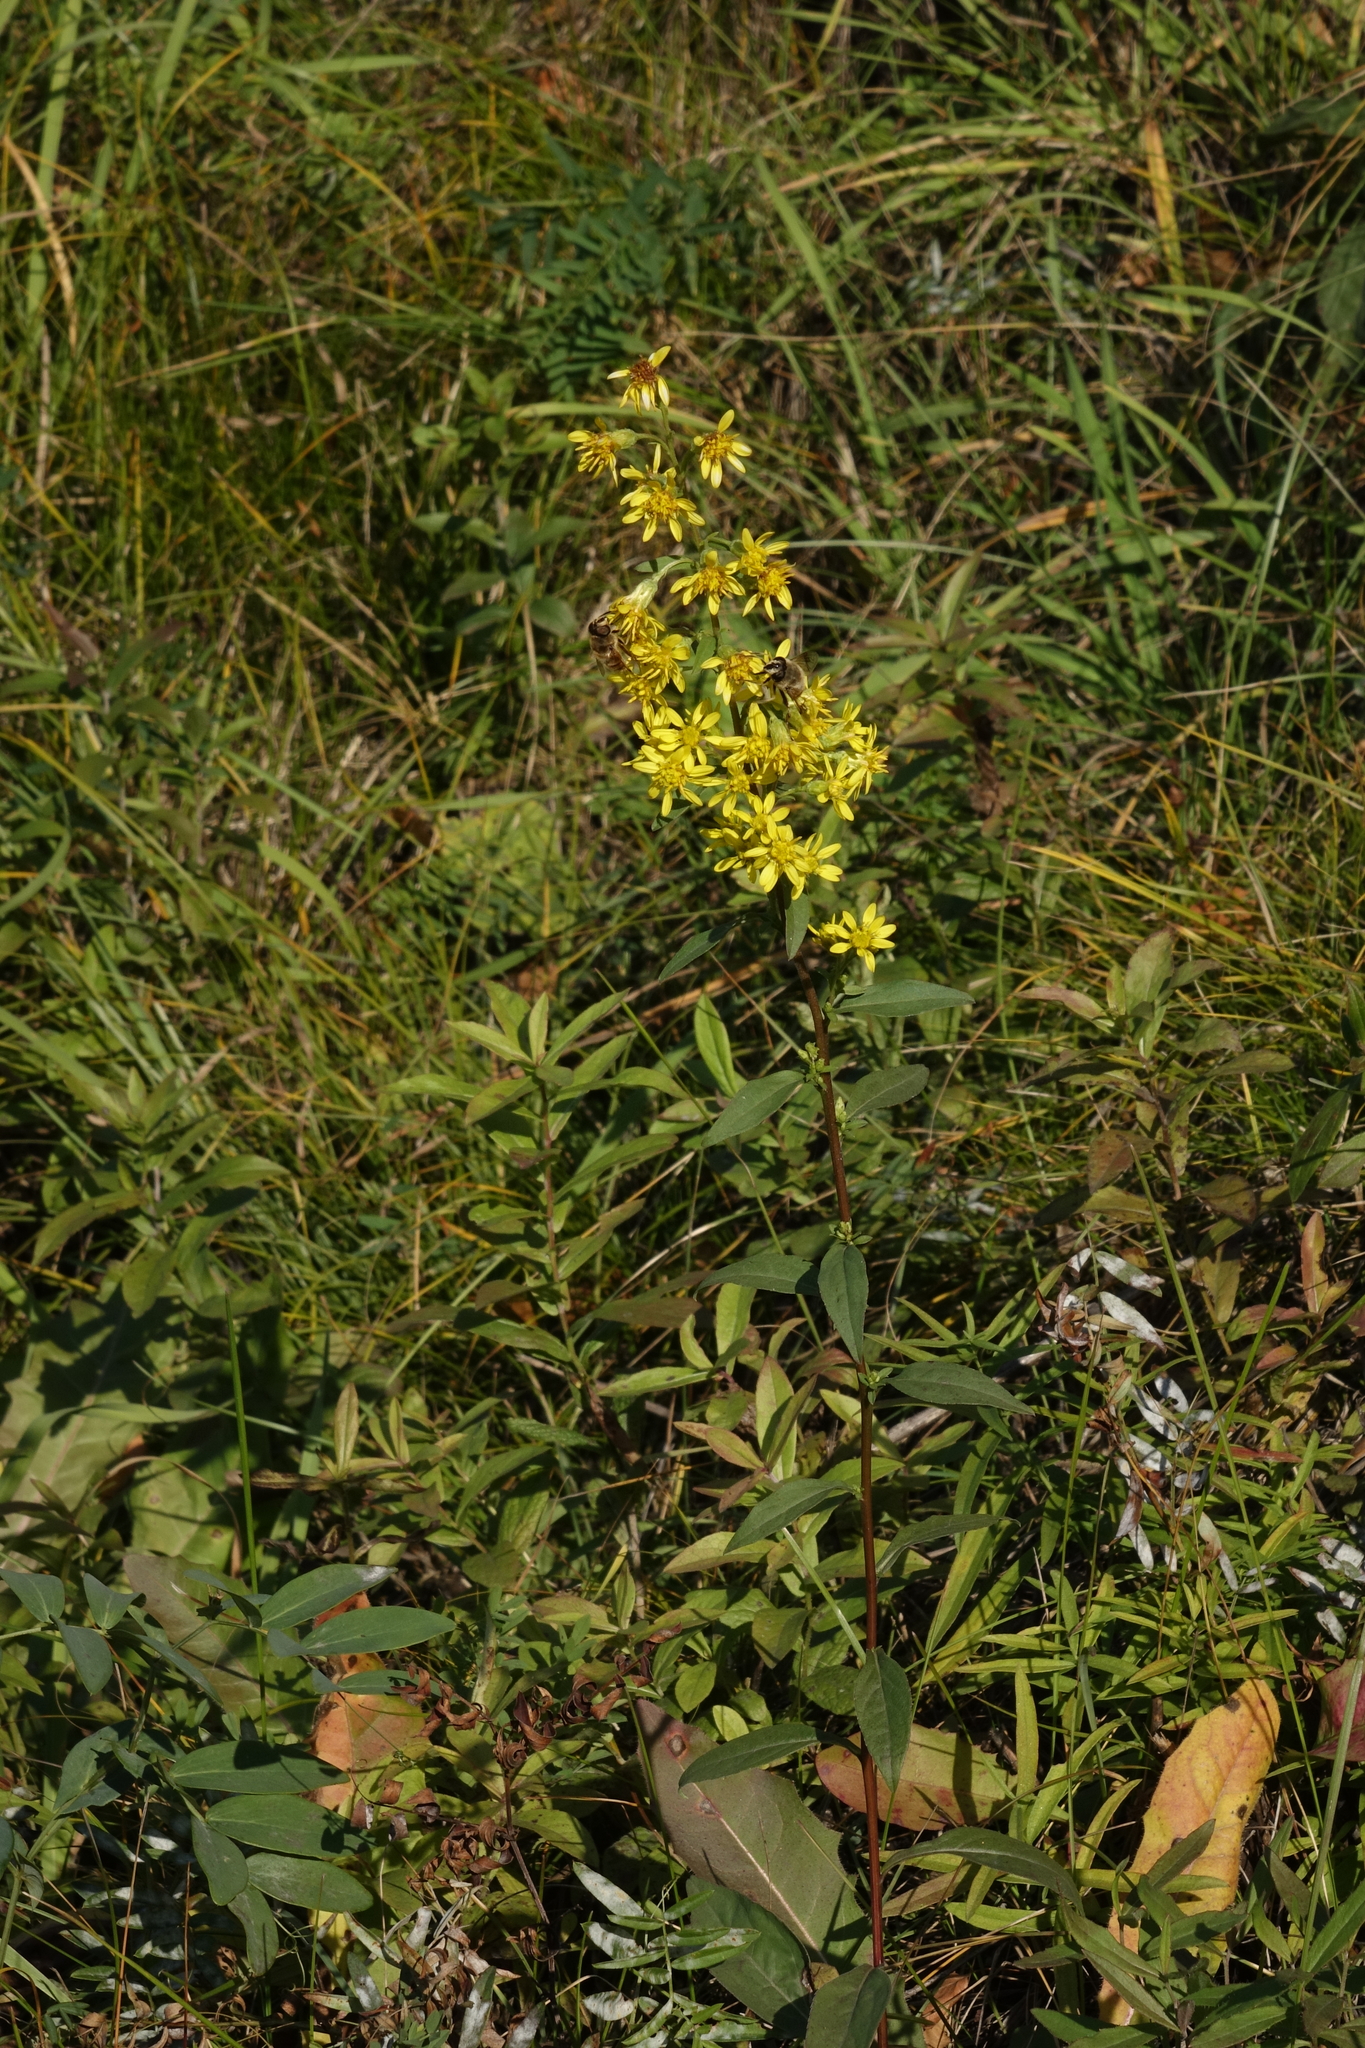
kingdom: Plantae
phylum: Tracheophyta
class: Magnoliopsida
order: Asterales
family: Asteraceae
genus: Solidago
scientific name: Solidago virgaurea
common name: Goldenrod
